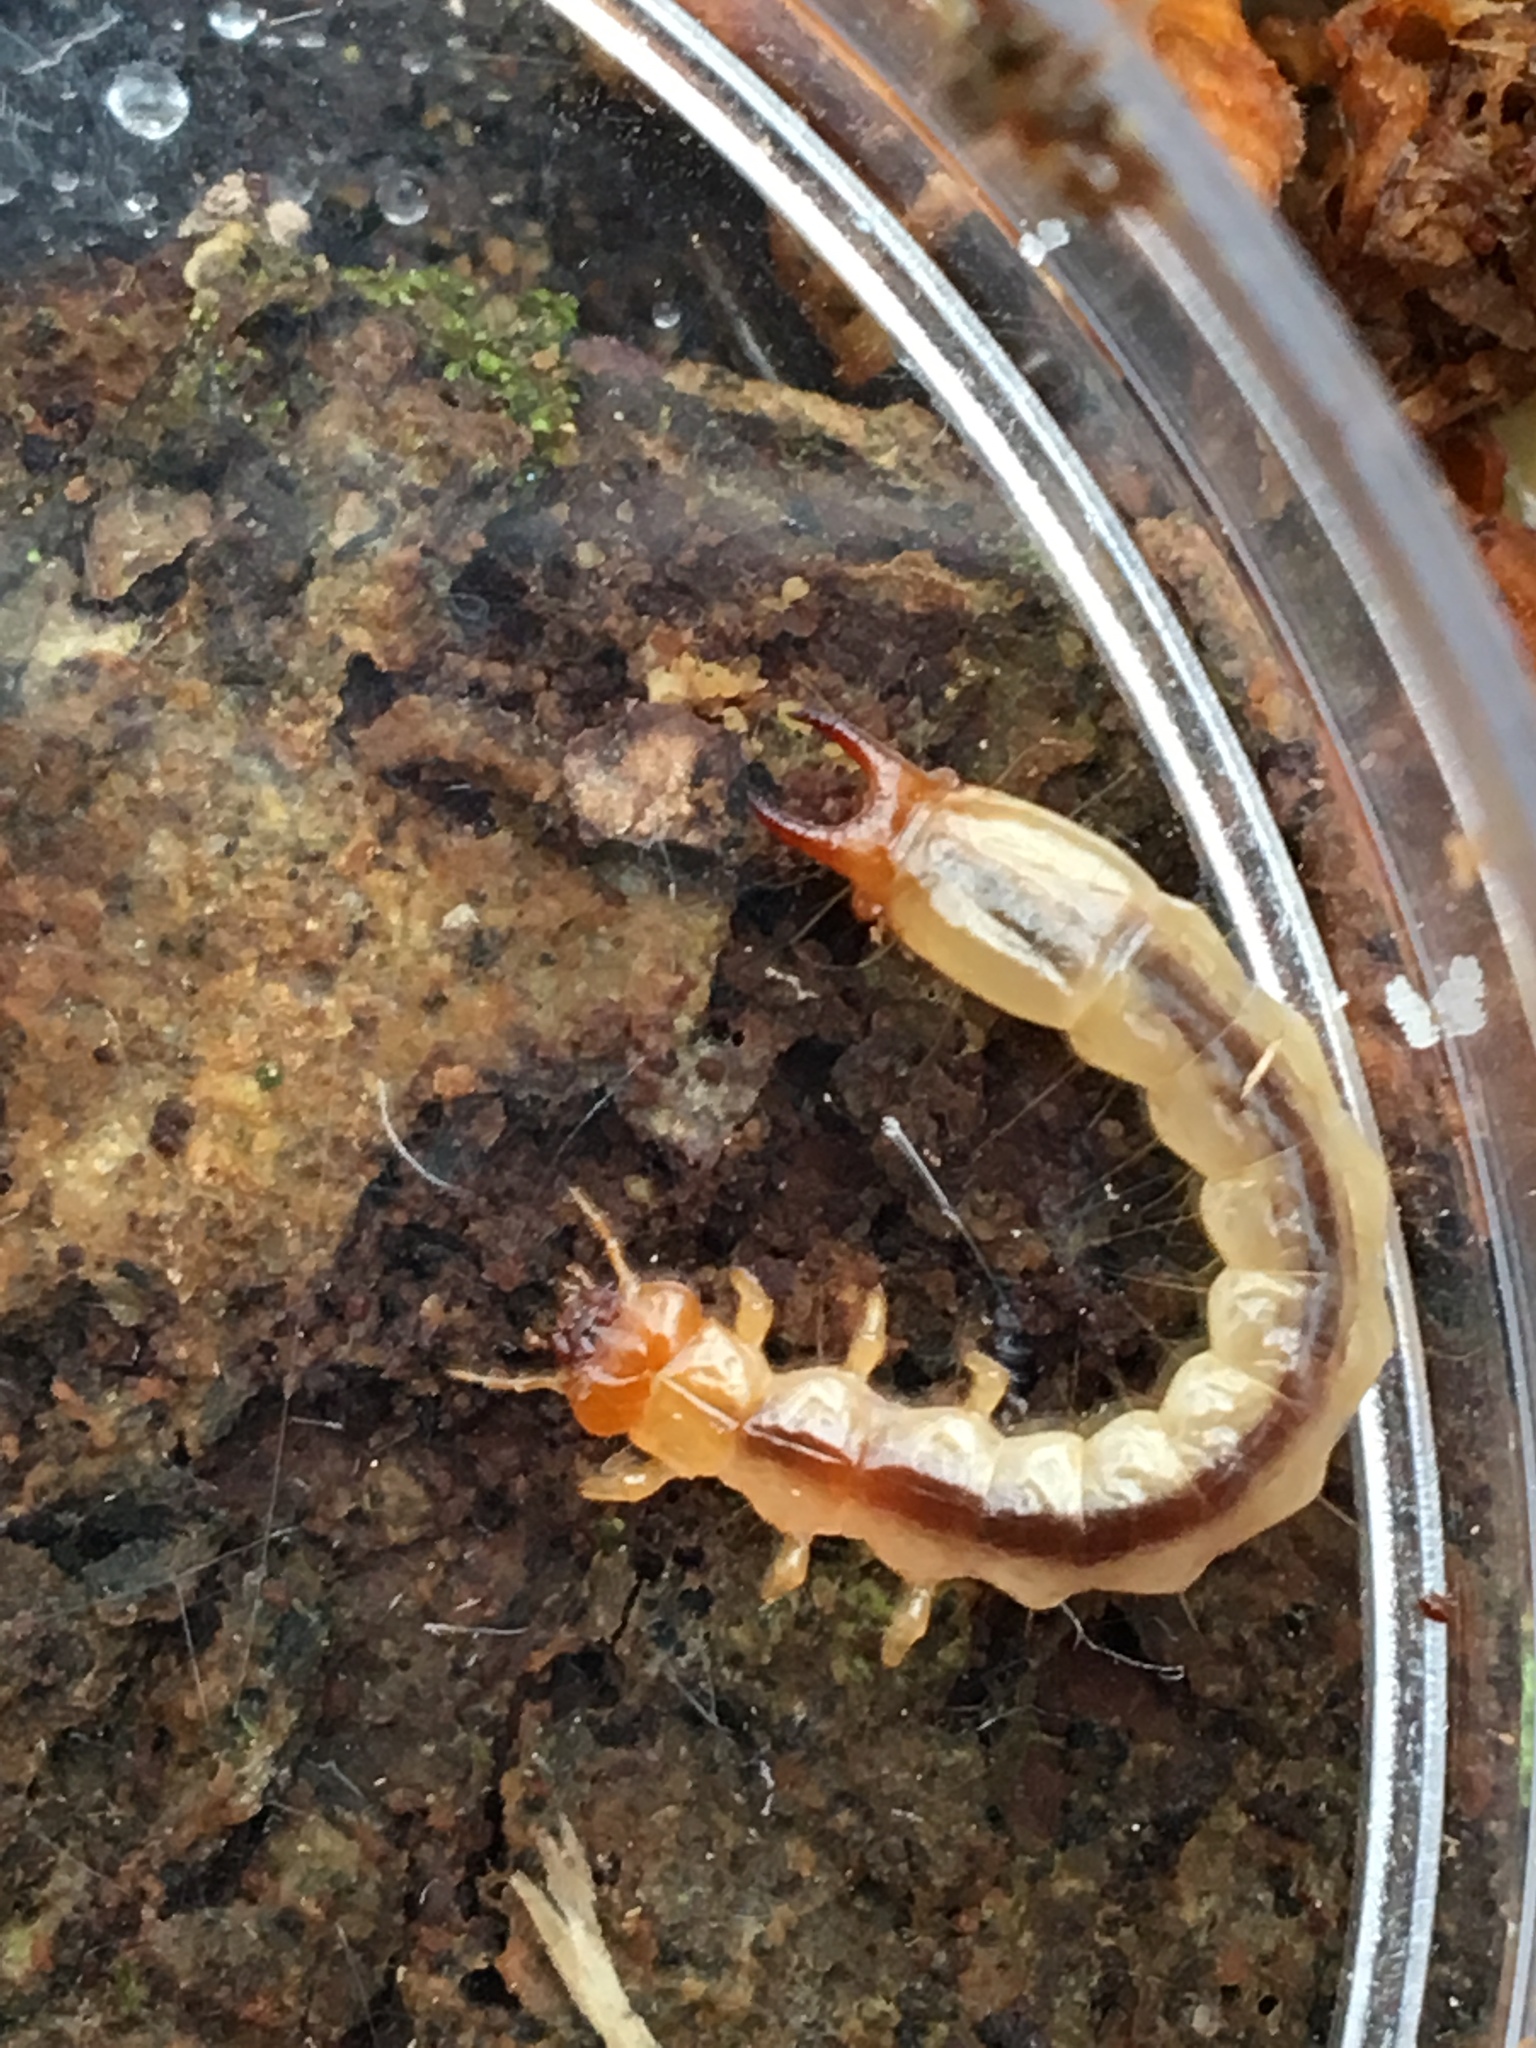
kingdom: Animalia
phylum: Arthropoda
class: Insecta
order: Coleoptera
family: Pyrochroidae
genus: Dendroides
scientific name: Dendroides canadensis
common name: Canada fire-colored beetle
